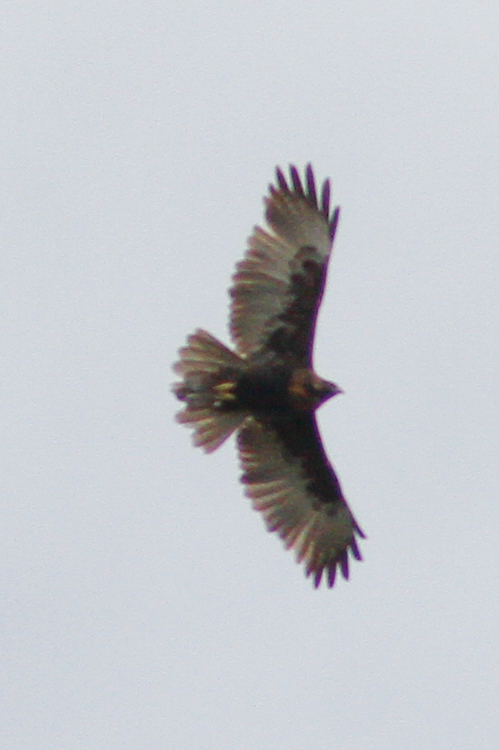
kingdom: Animalia
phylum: Chordata
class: Aves
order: Accipitriformes
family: Accipitridae
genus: Buteo
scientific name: Buteo polyosoma
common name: Variable hawk
